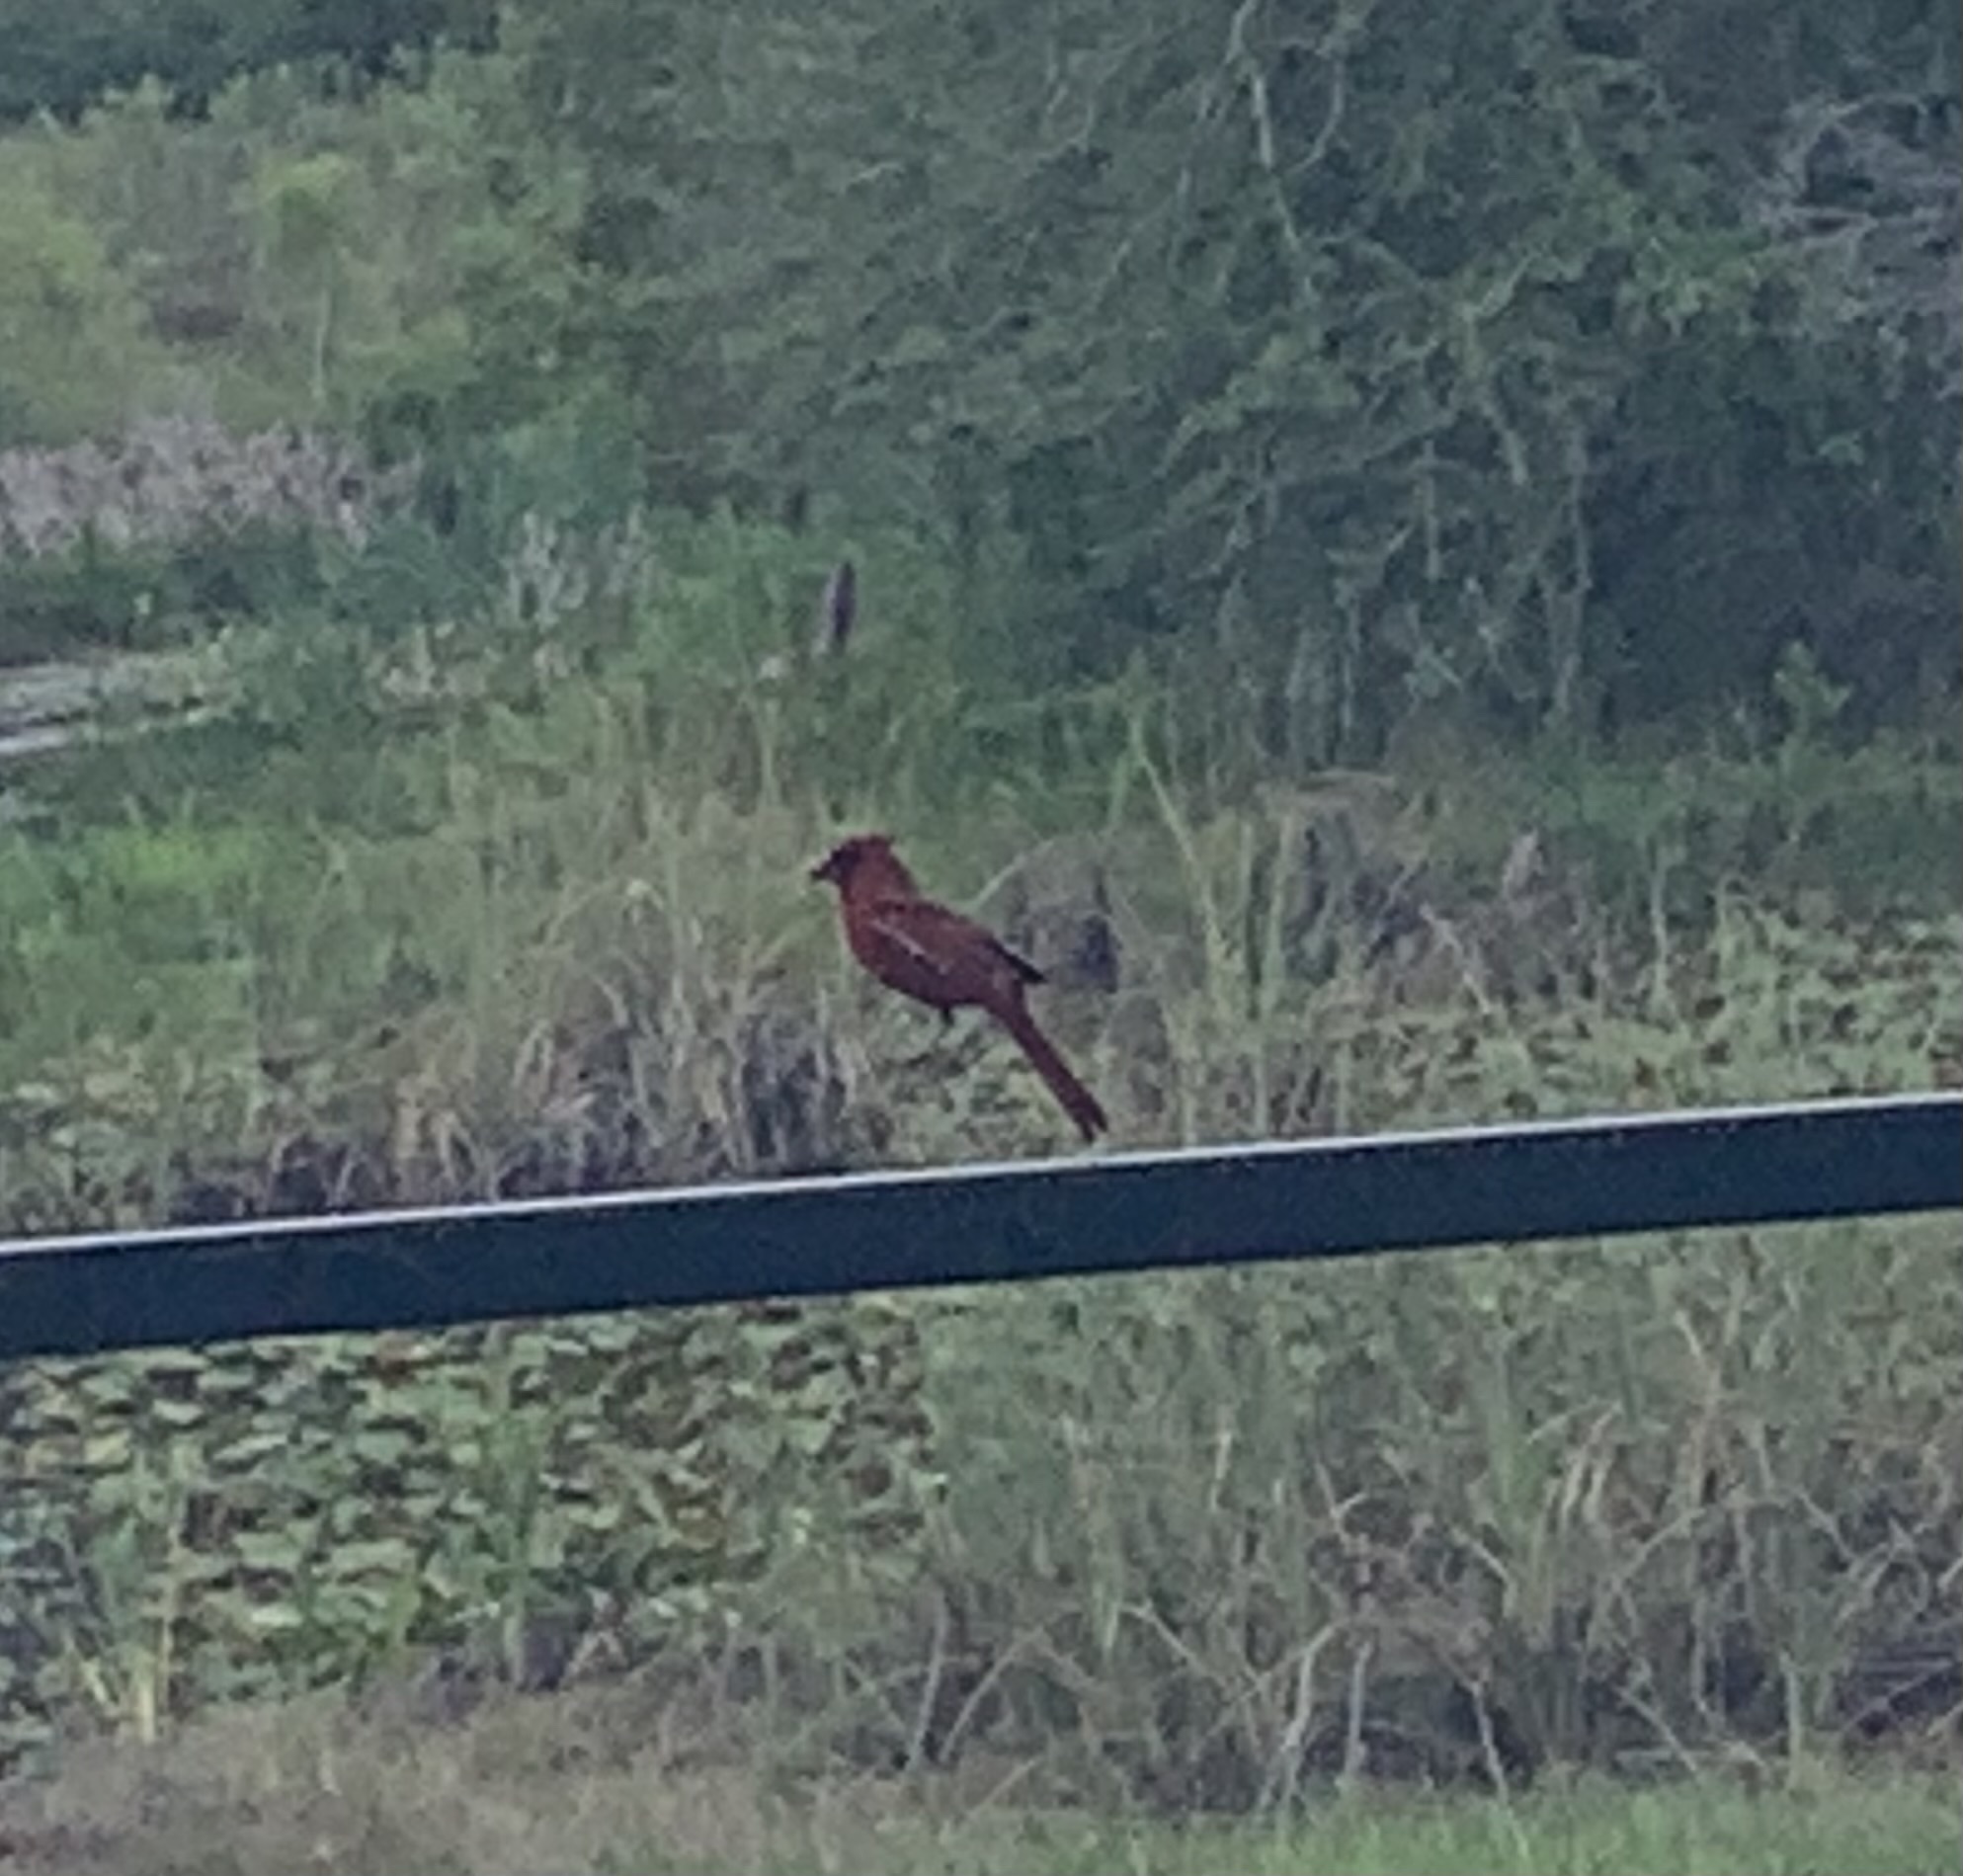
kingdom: Animalia
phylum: Chordata
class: Aves
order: Passeriformes
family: Cardinalidae
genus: Cardinalis
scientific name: Cardinalis cardinalis
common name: Northern cardinal
